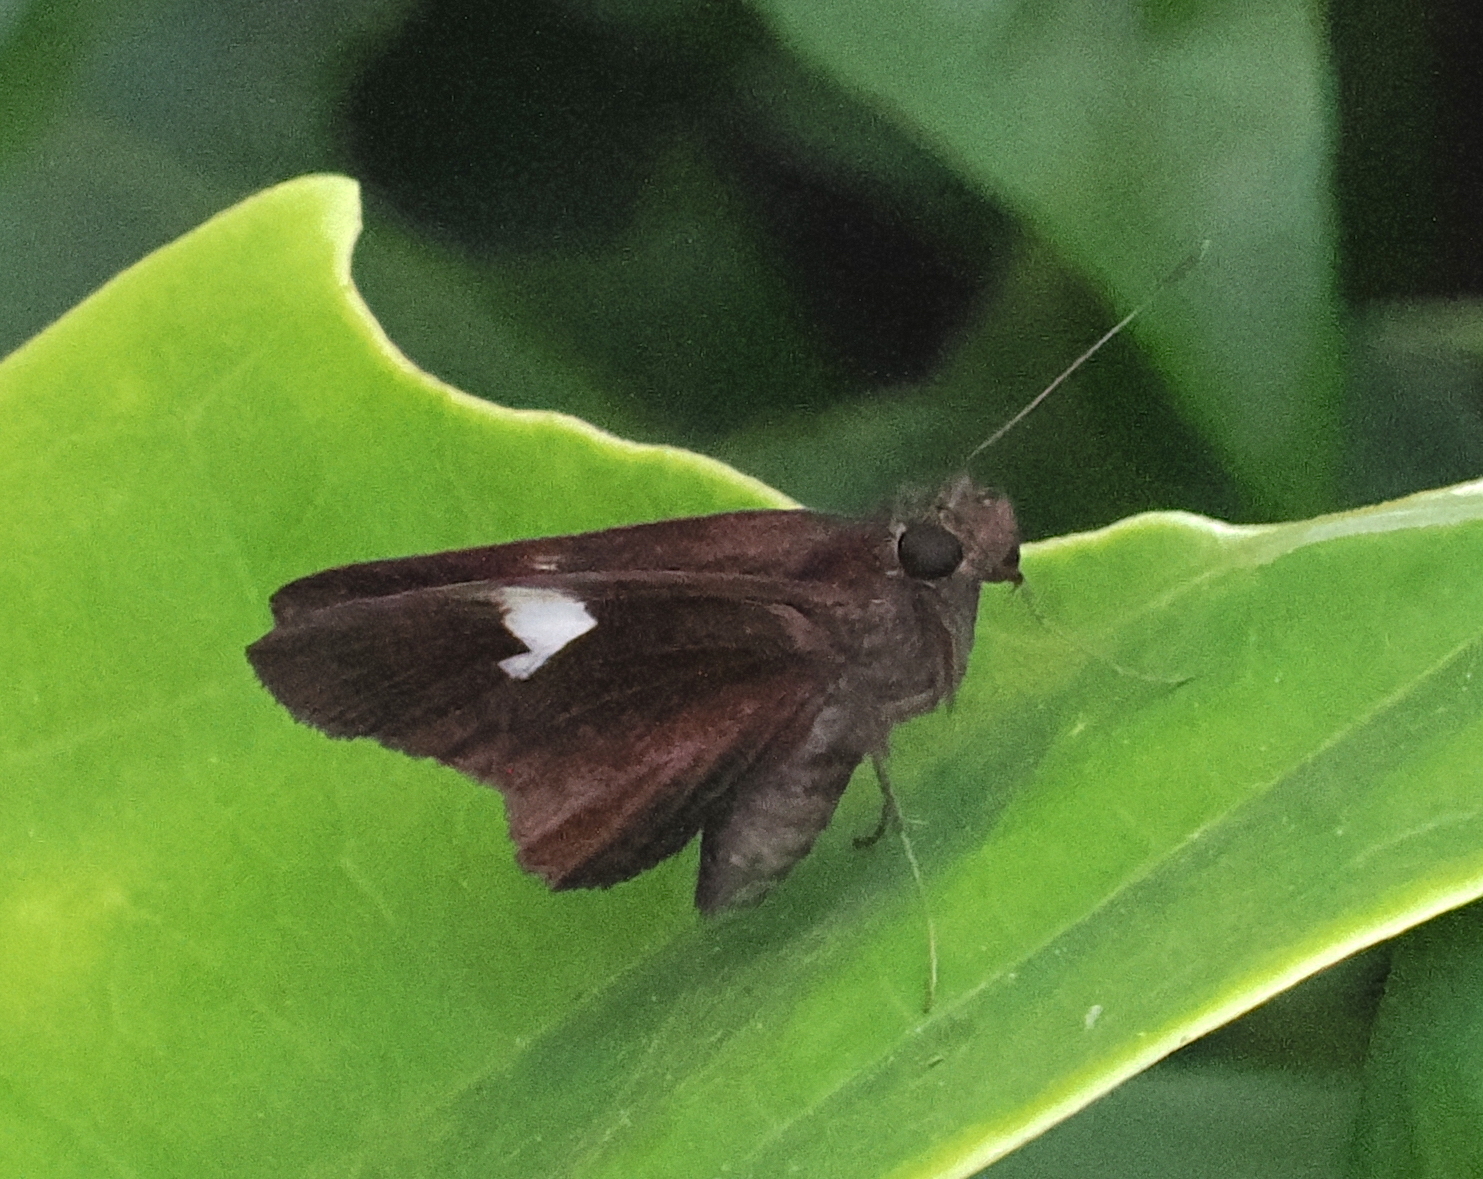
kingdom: Animalia
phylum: Arthropoda
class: Insecta
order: Lepidoptera
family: Hesperiidae
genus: Quedara
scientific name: Quedara monteithi
